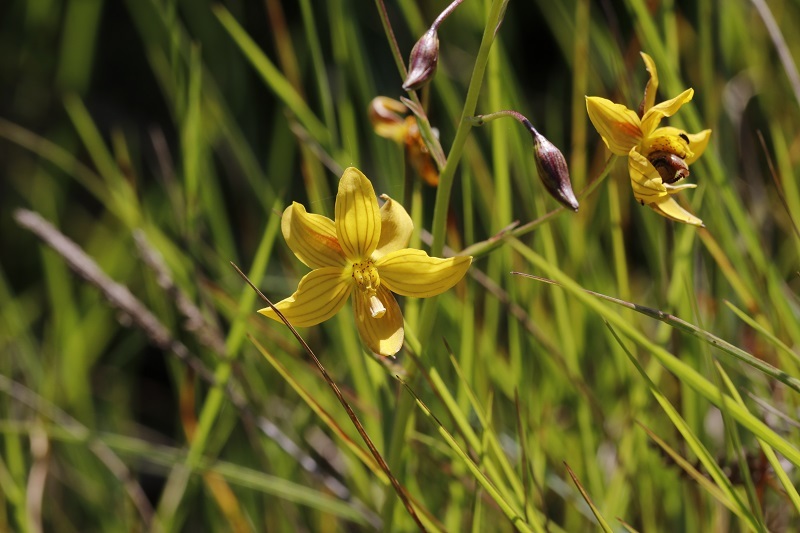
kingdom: Plantae
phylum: Tracheophyta
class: Liliopsida
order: Asparagales
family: Tecophilaeaceae
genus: Cyanella
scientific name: Cyanella lutea
